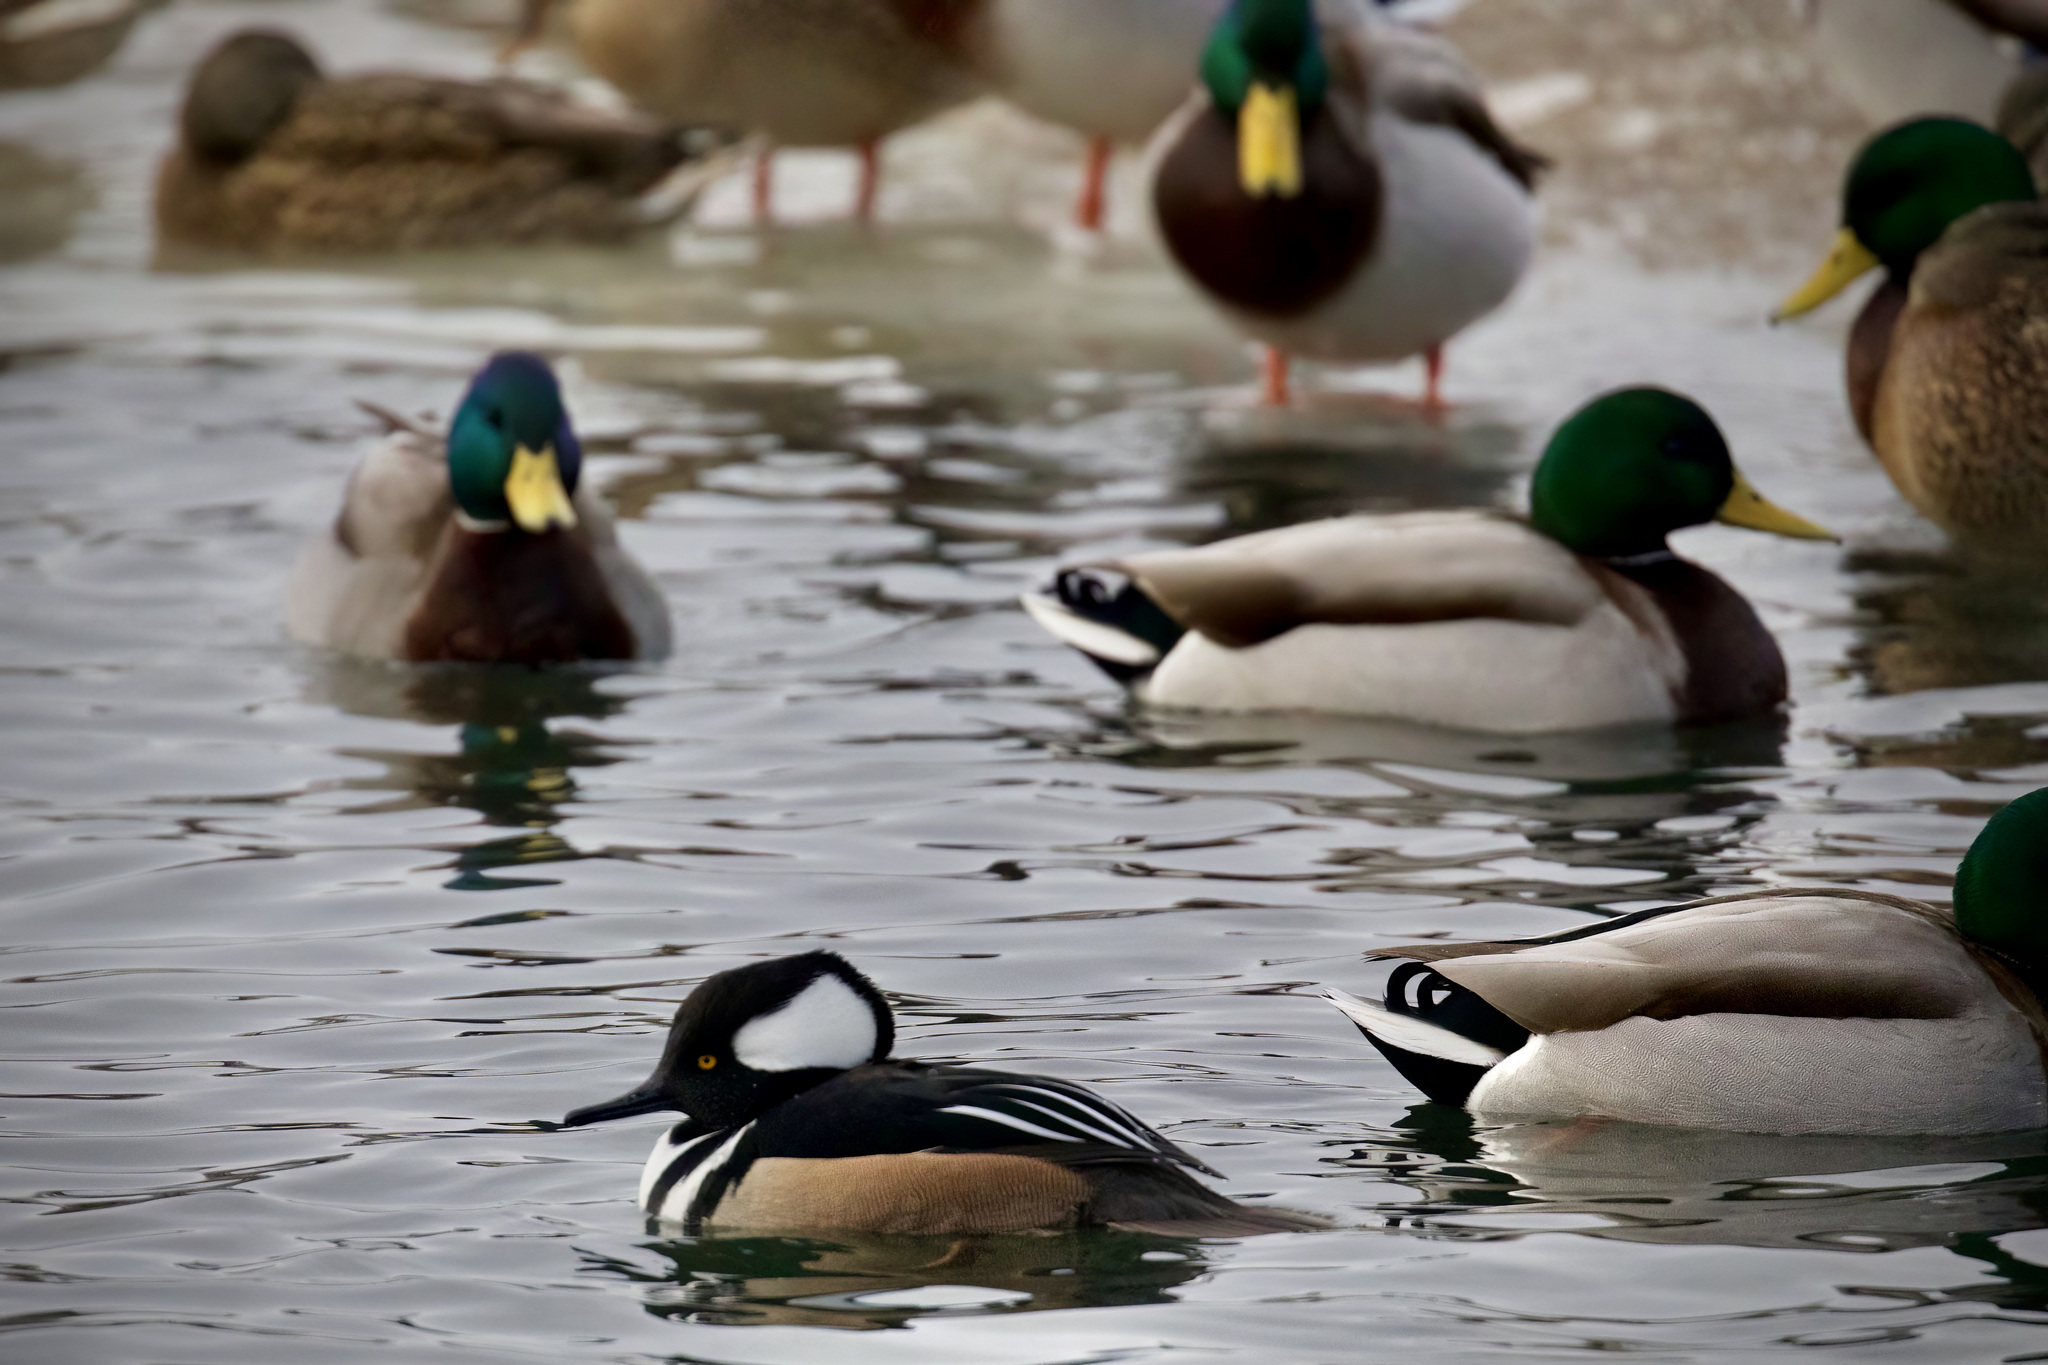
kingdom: Animalia
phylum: Chordata
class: Aves
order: Anseriformes
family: Anatidae
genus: Lophodytes
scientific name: Lophodytes cucullatus
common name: Hooded merganser
